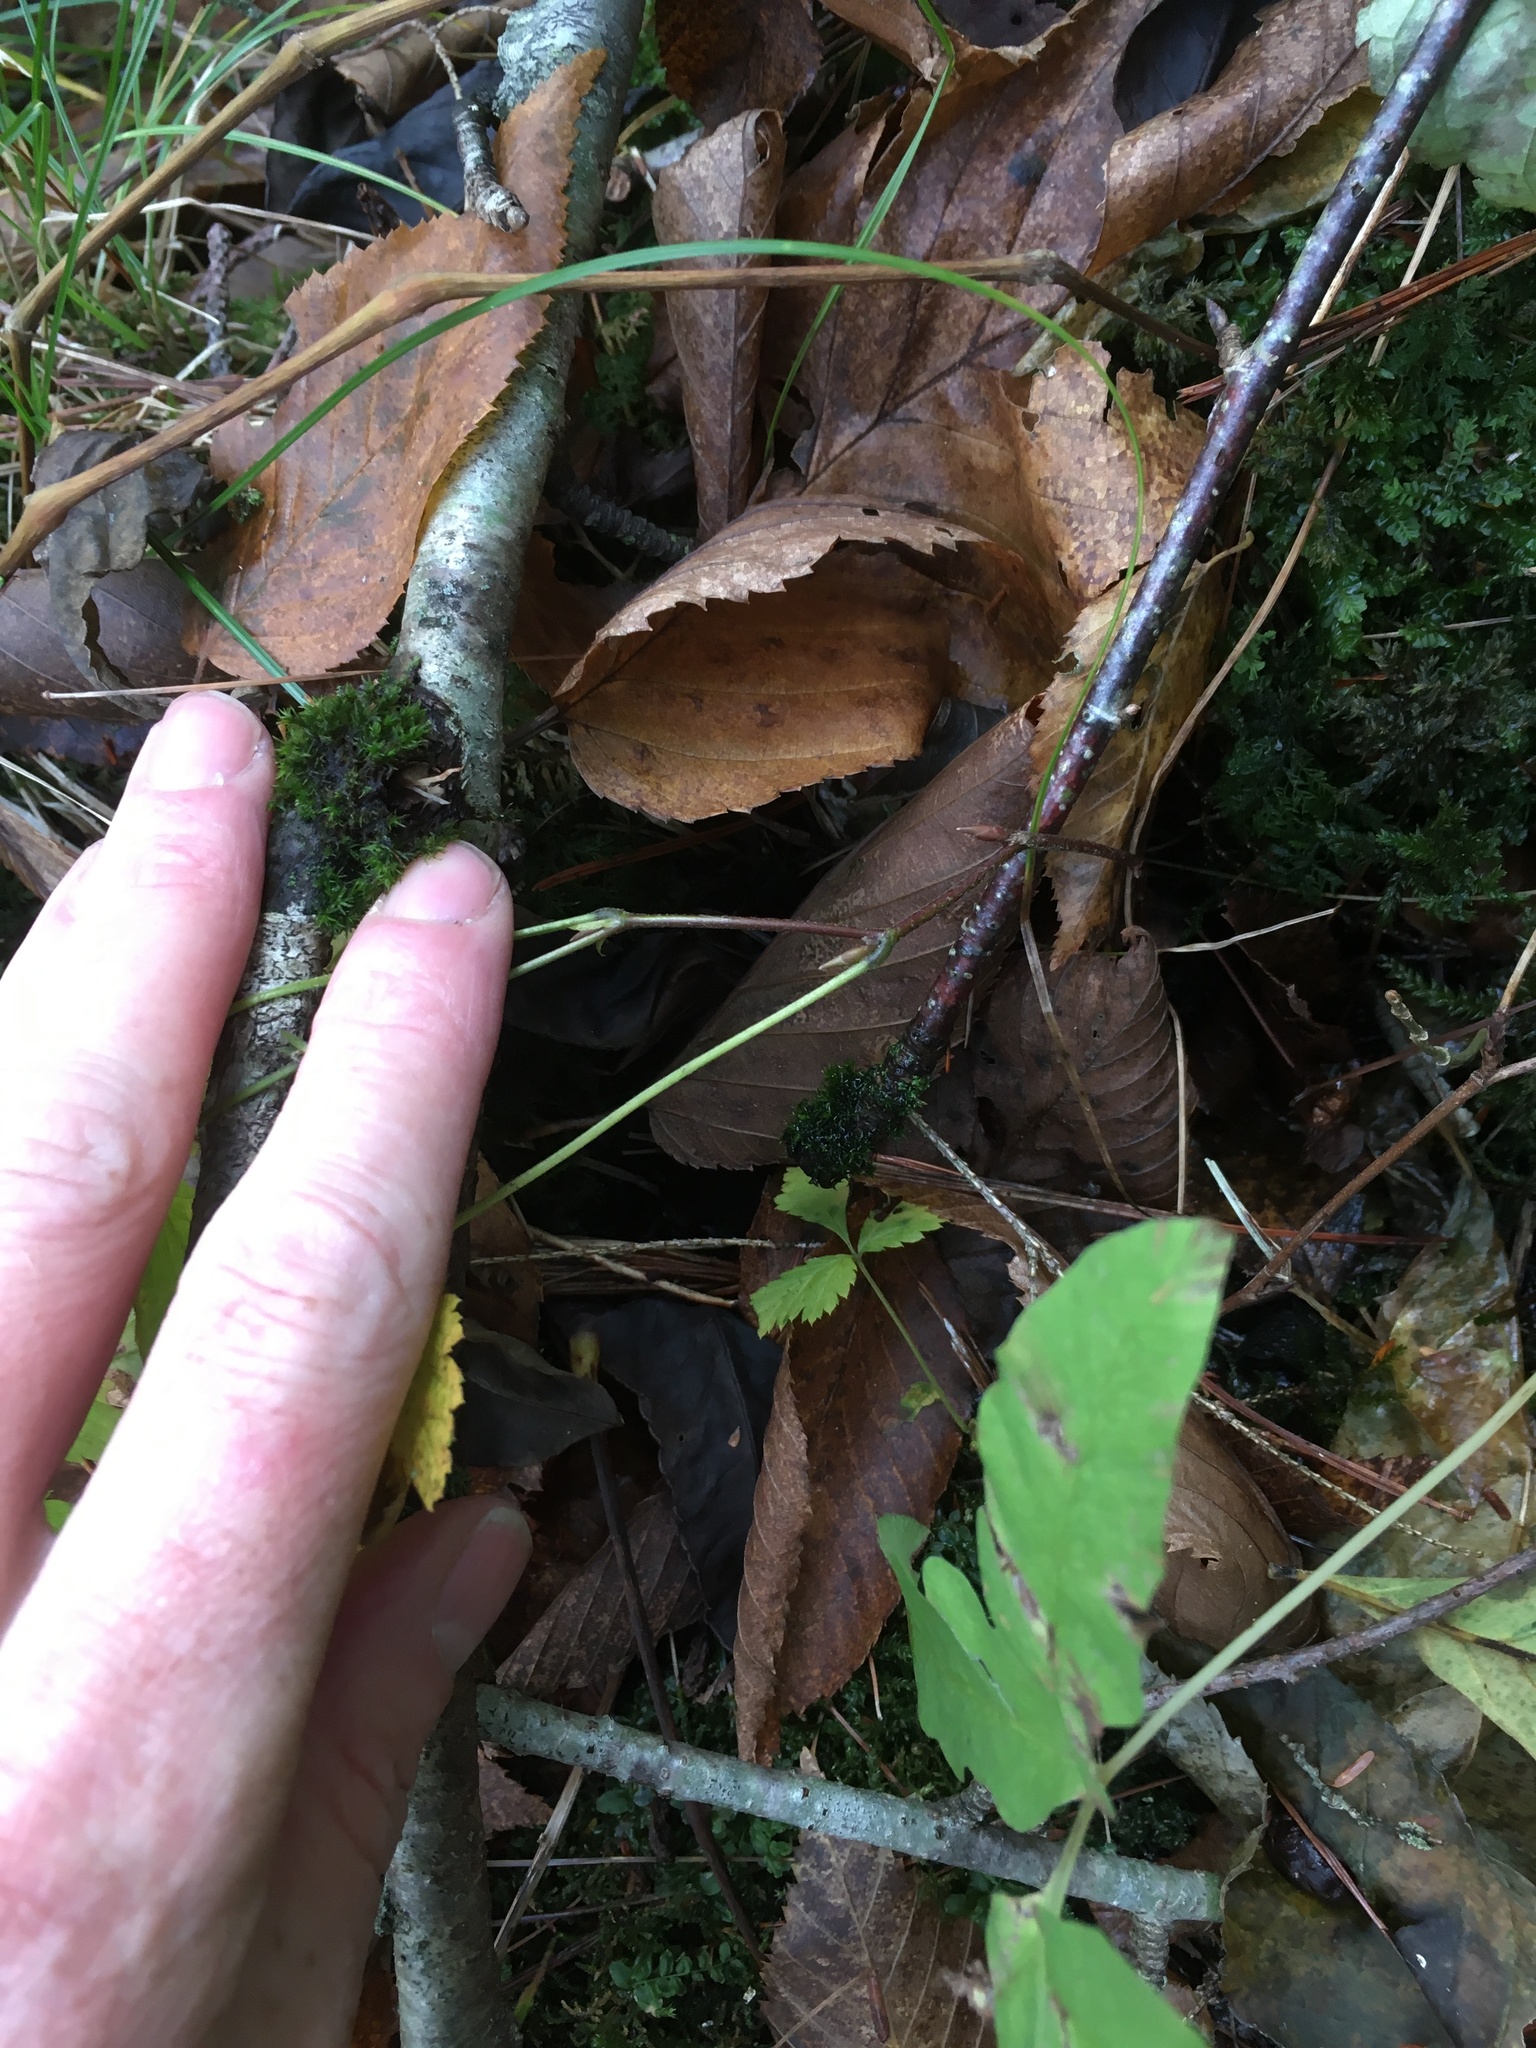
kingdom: Plantae
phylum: Tracheophyta
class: Magnoliopsida
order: Rosales
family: Rosaceae
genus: Rubus
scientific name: Rubus pubescens
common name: Dwarf raspberry
